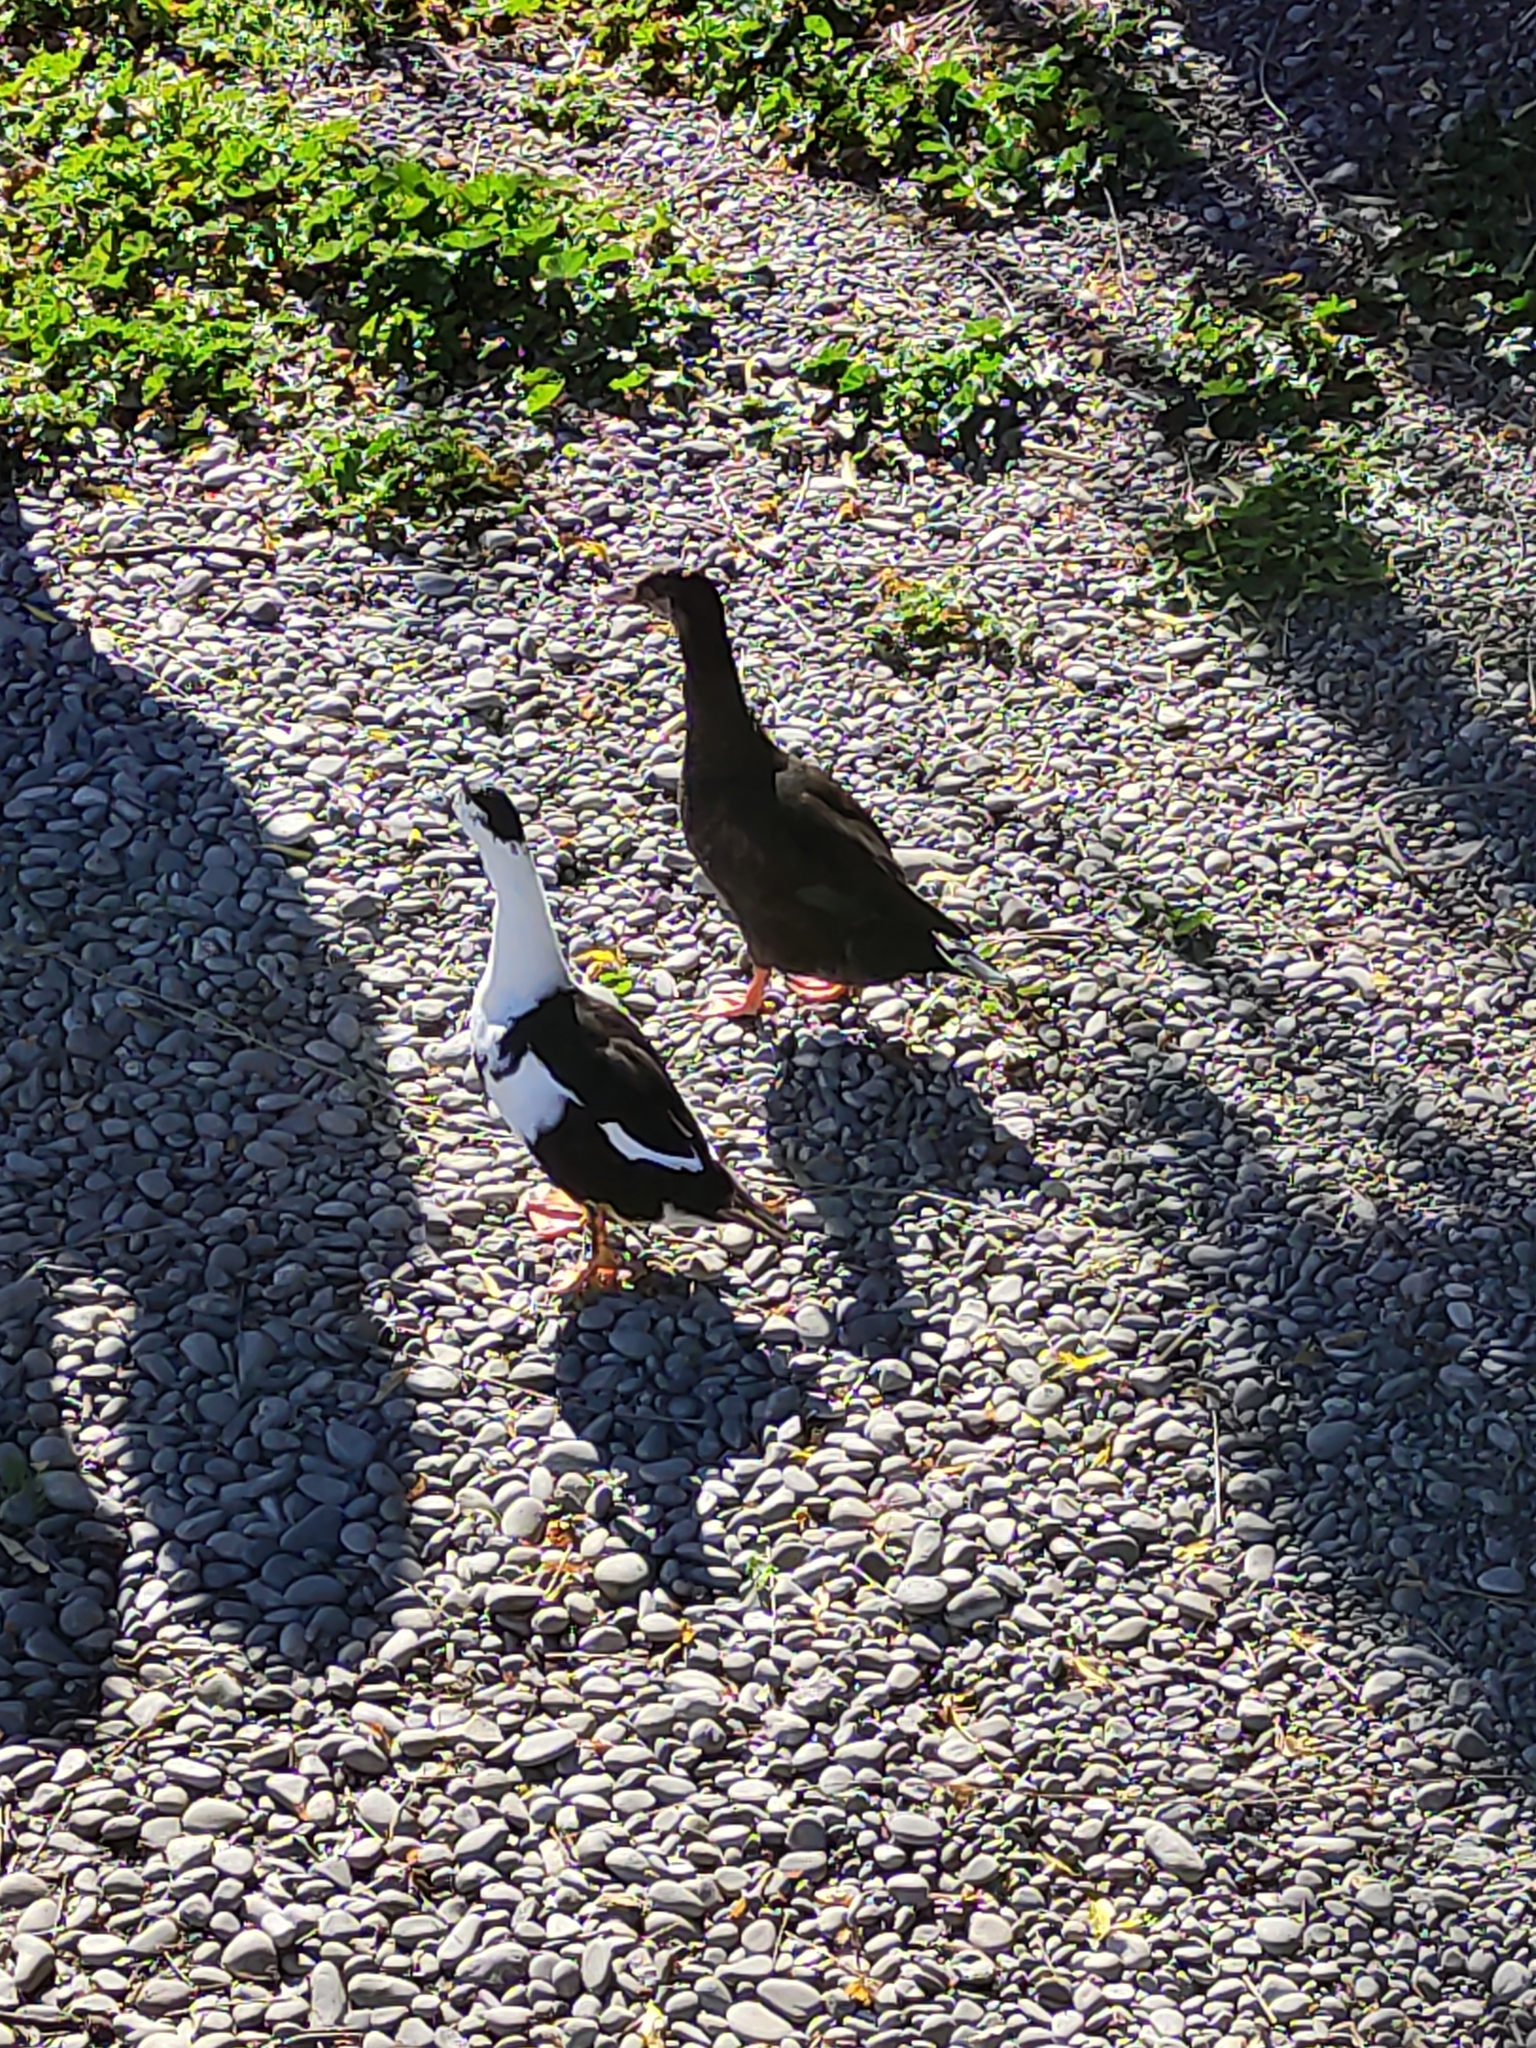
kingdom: Animalia
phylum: Chordata
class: Aves
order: Anseriformes
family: Anatidae
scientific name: Anatidae
